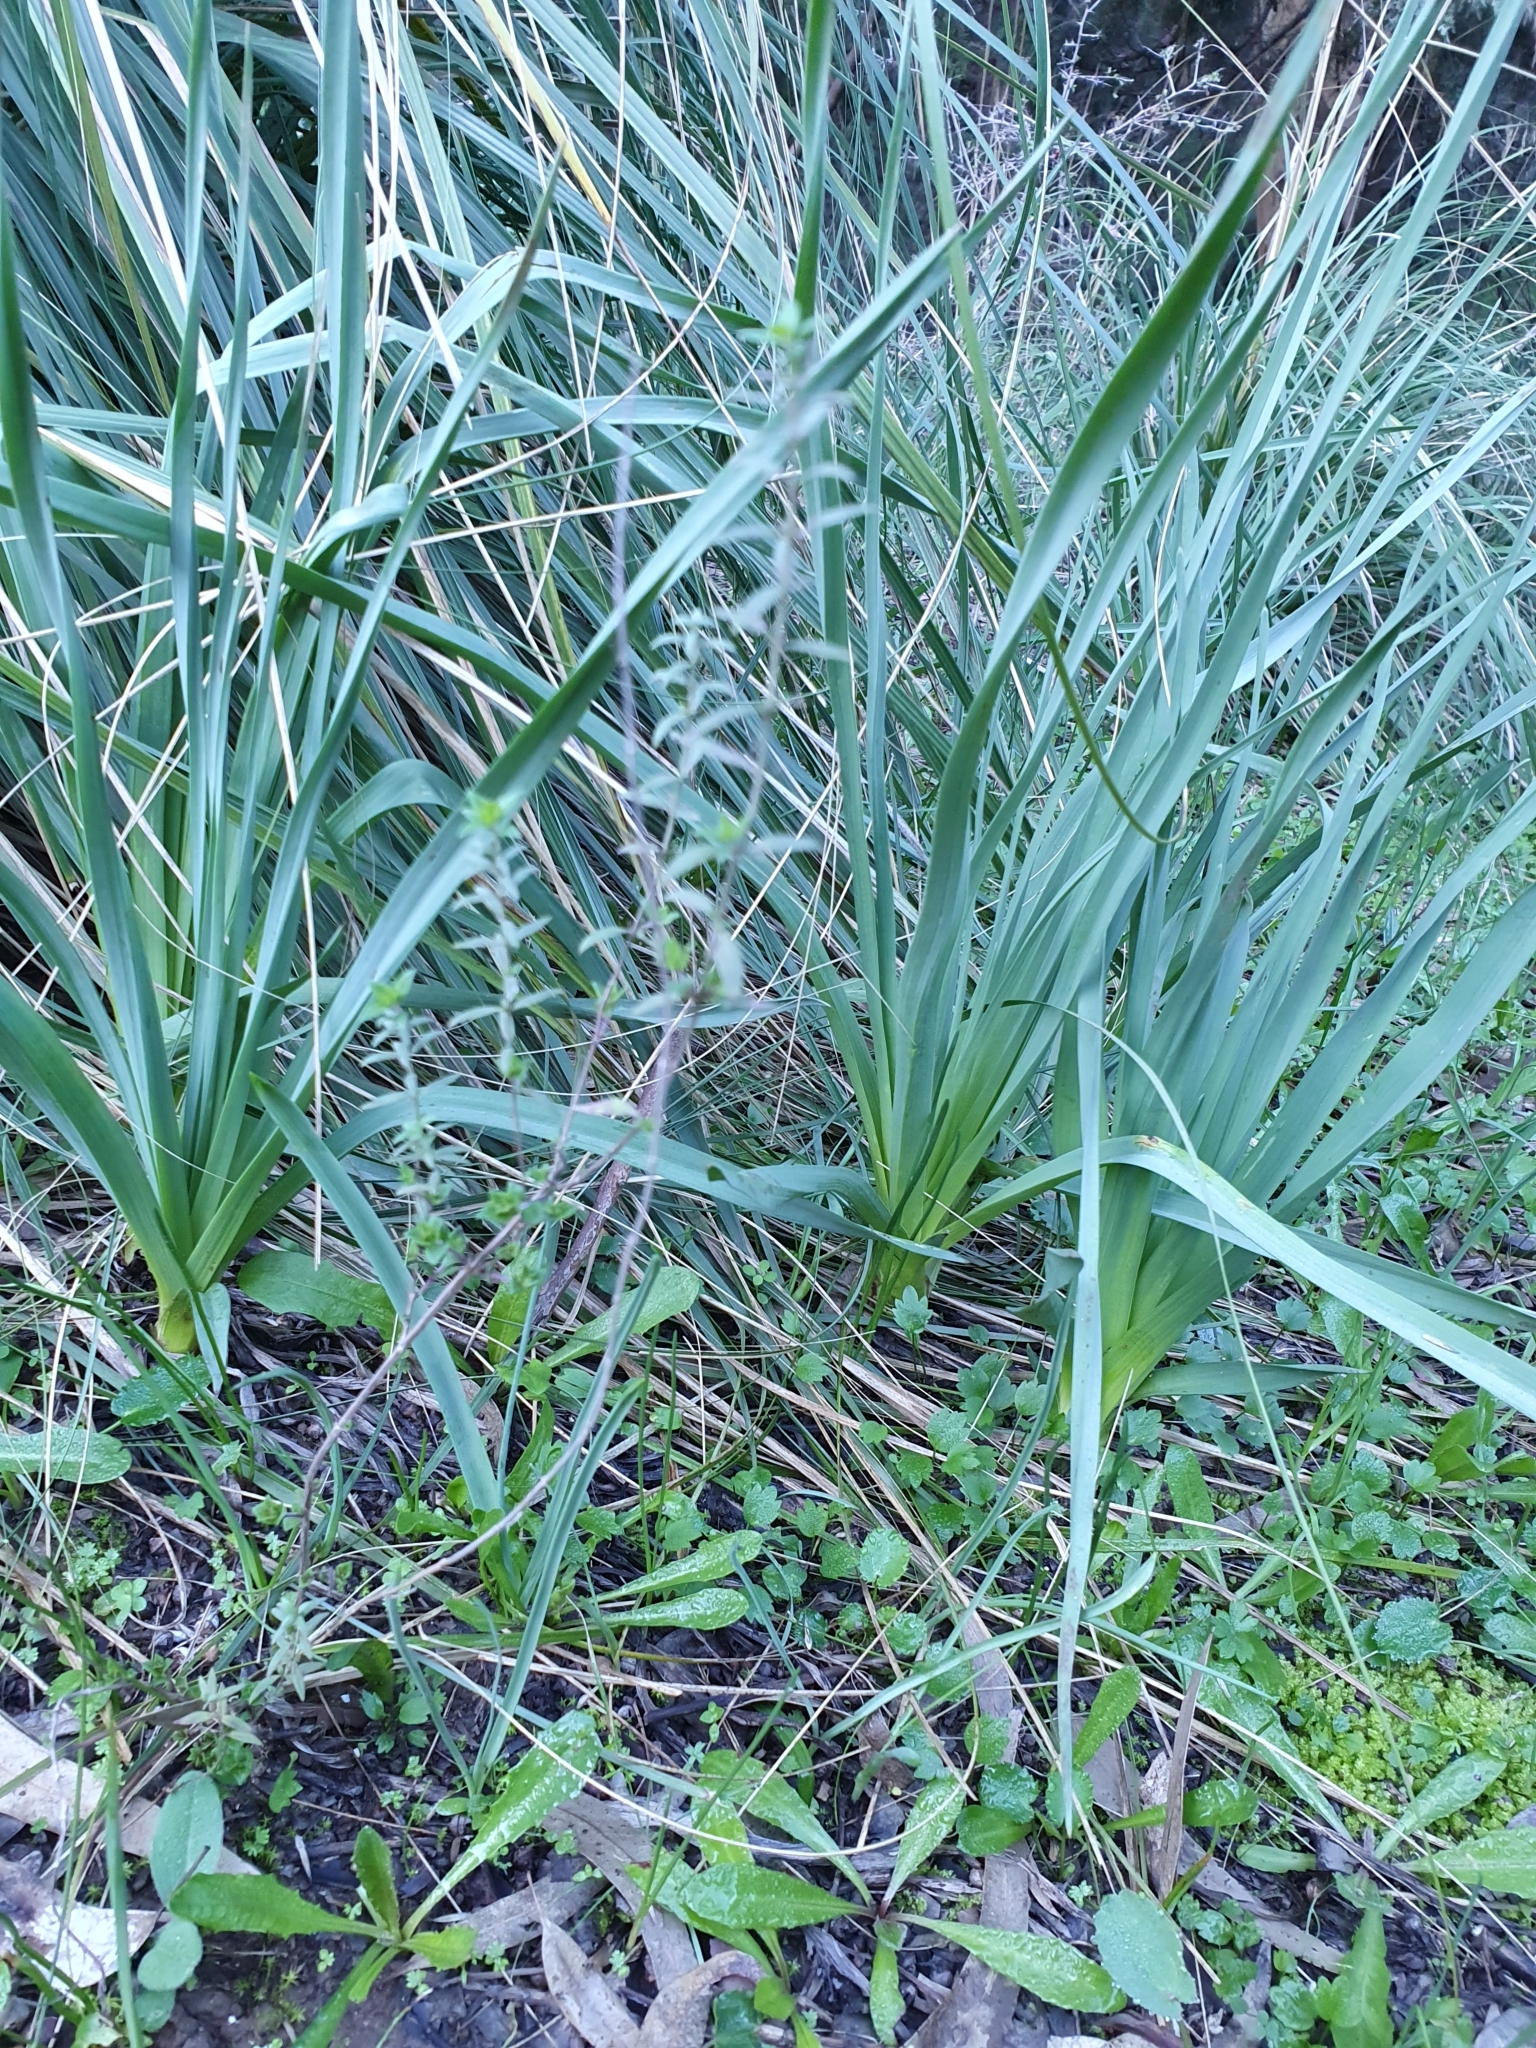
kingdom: Plantae
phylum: Tracheophyta
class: Liliopsida
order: Asparagales
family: Asphodelaceae
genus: Asphodelus
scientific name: Asphodelus ramosus
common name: Silverrod
